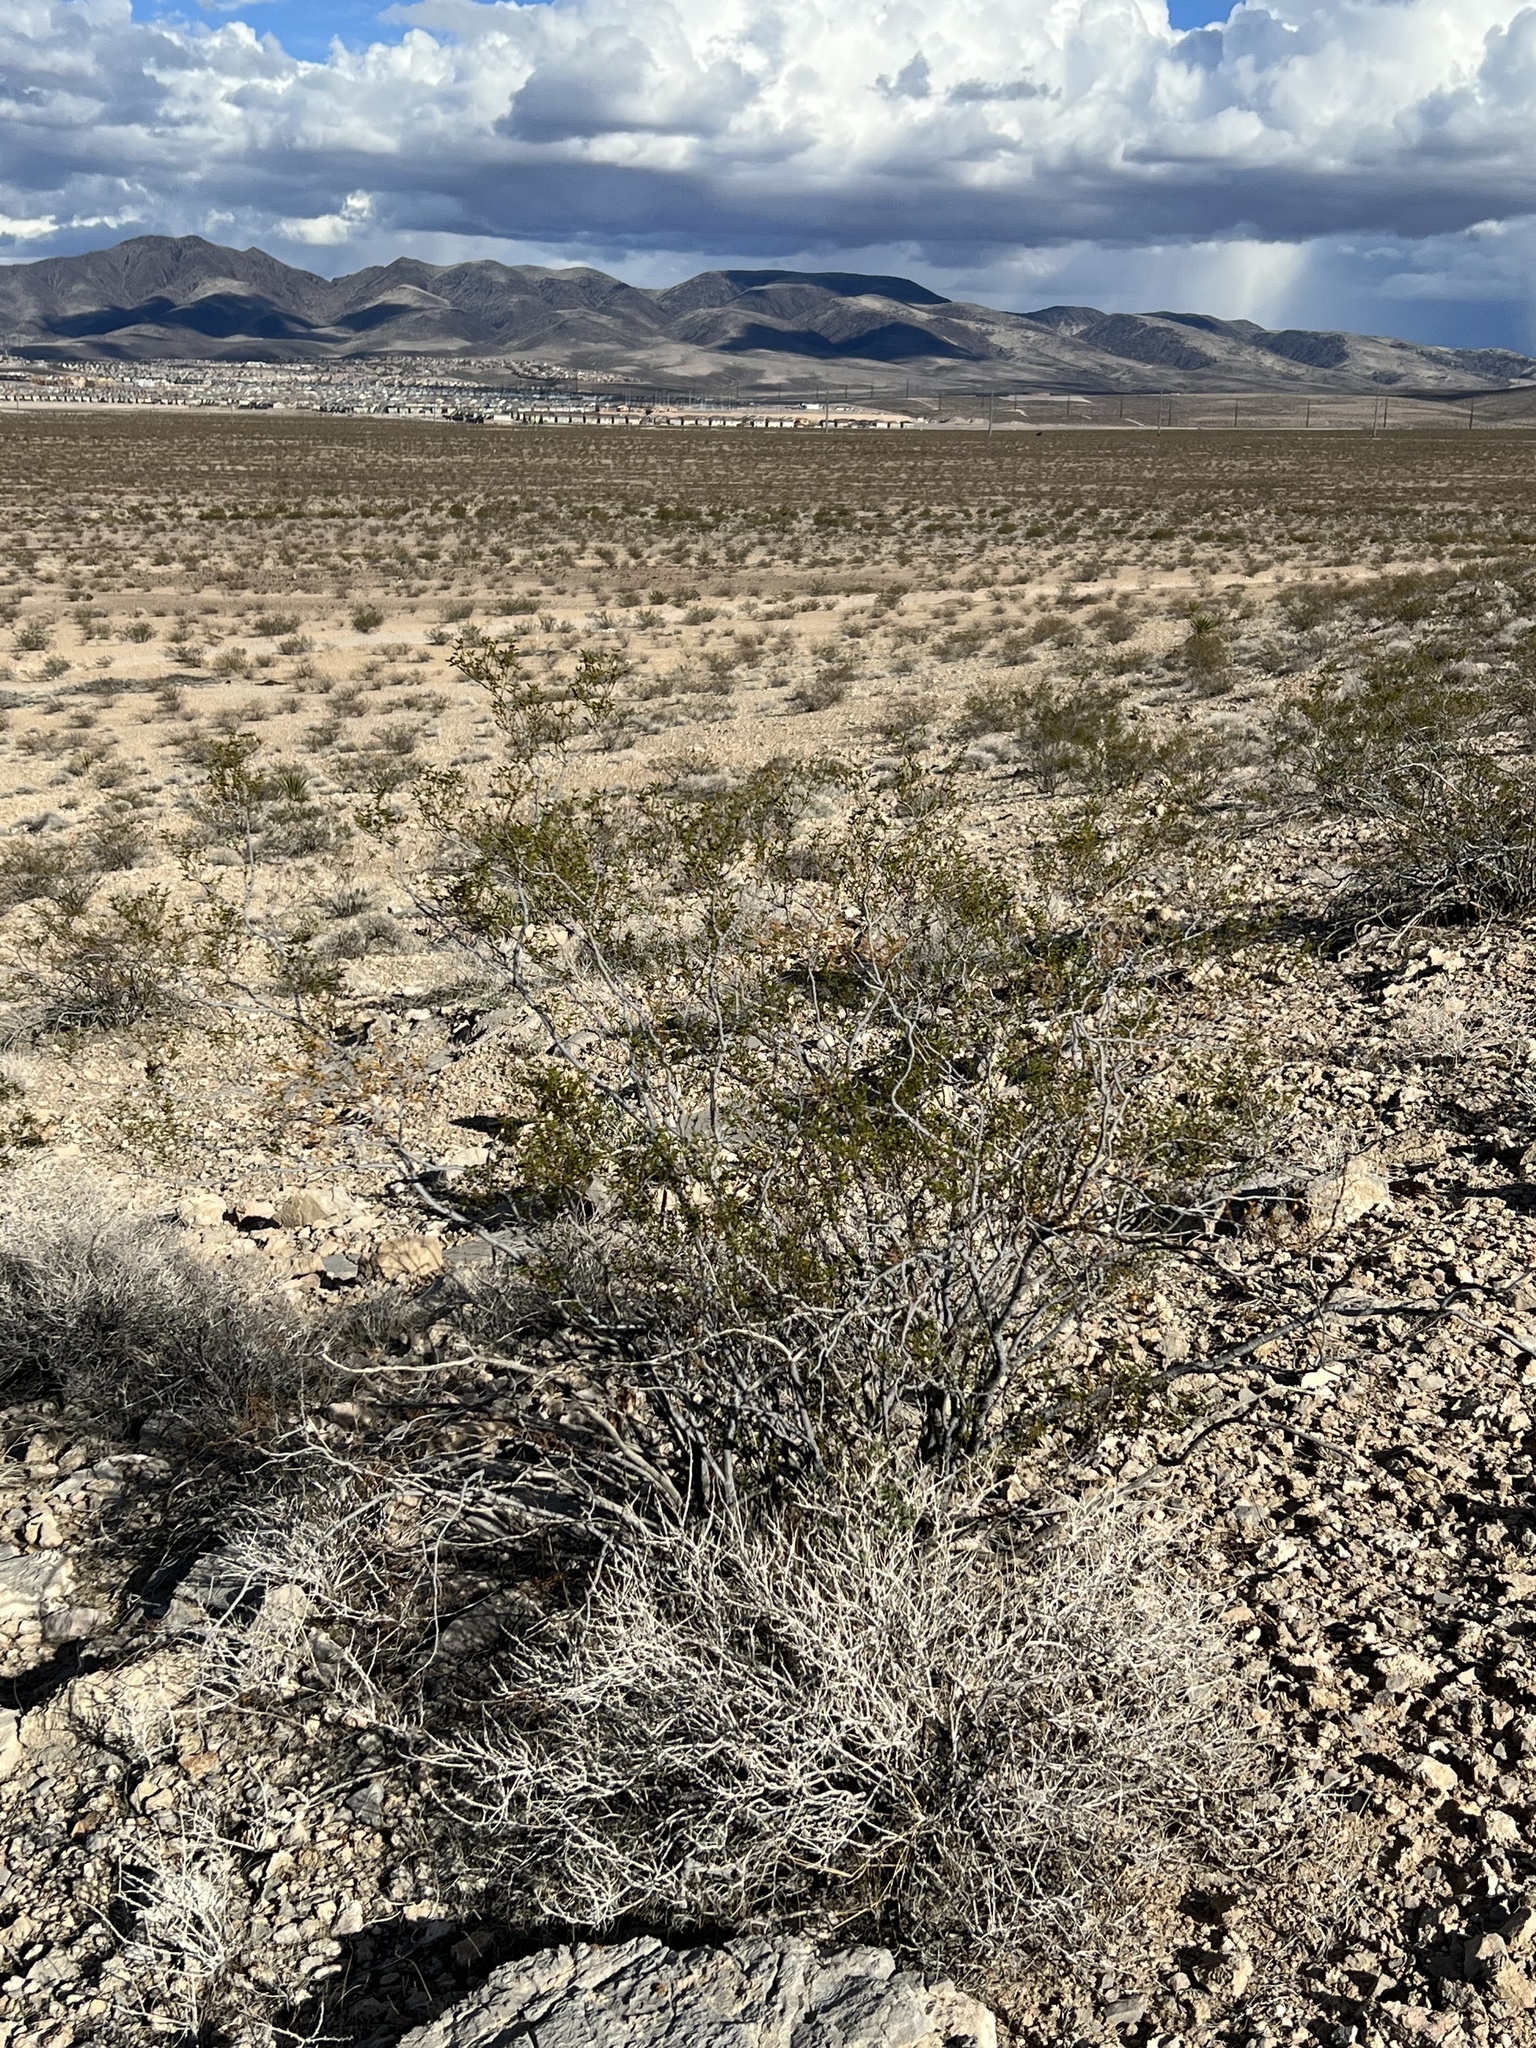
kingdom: Plantae
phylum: Tracheophyta
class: Magnoliopsida
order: Zygophyllales
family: Zygophyllaceae
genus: Larrea
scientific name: Larrea tridentata
